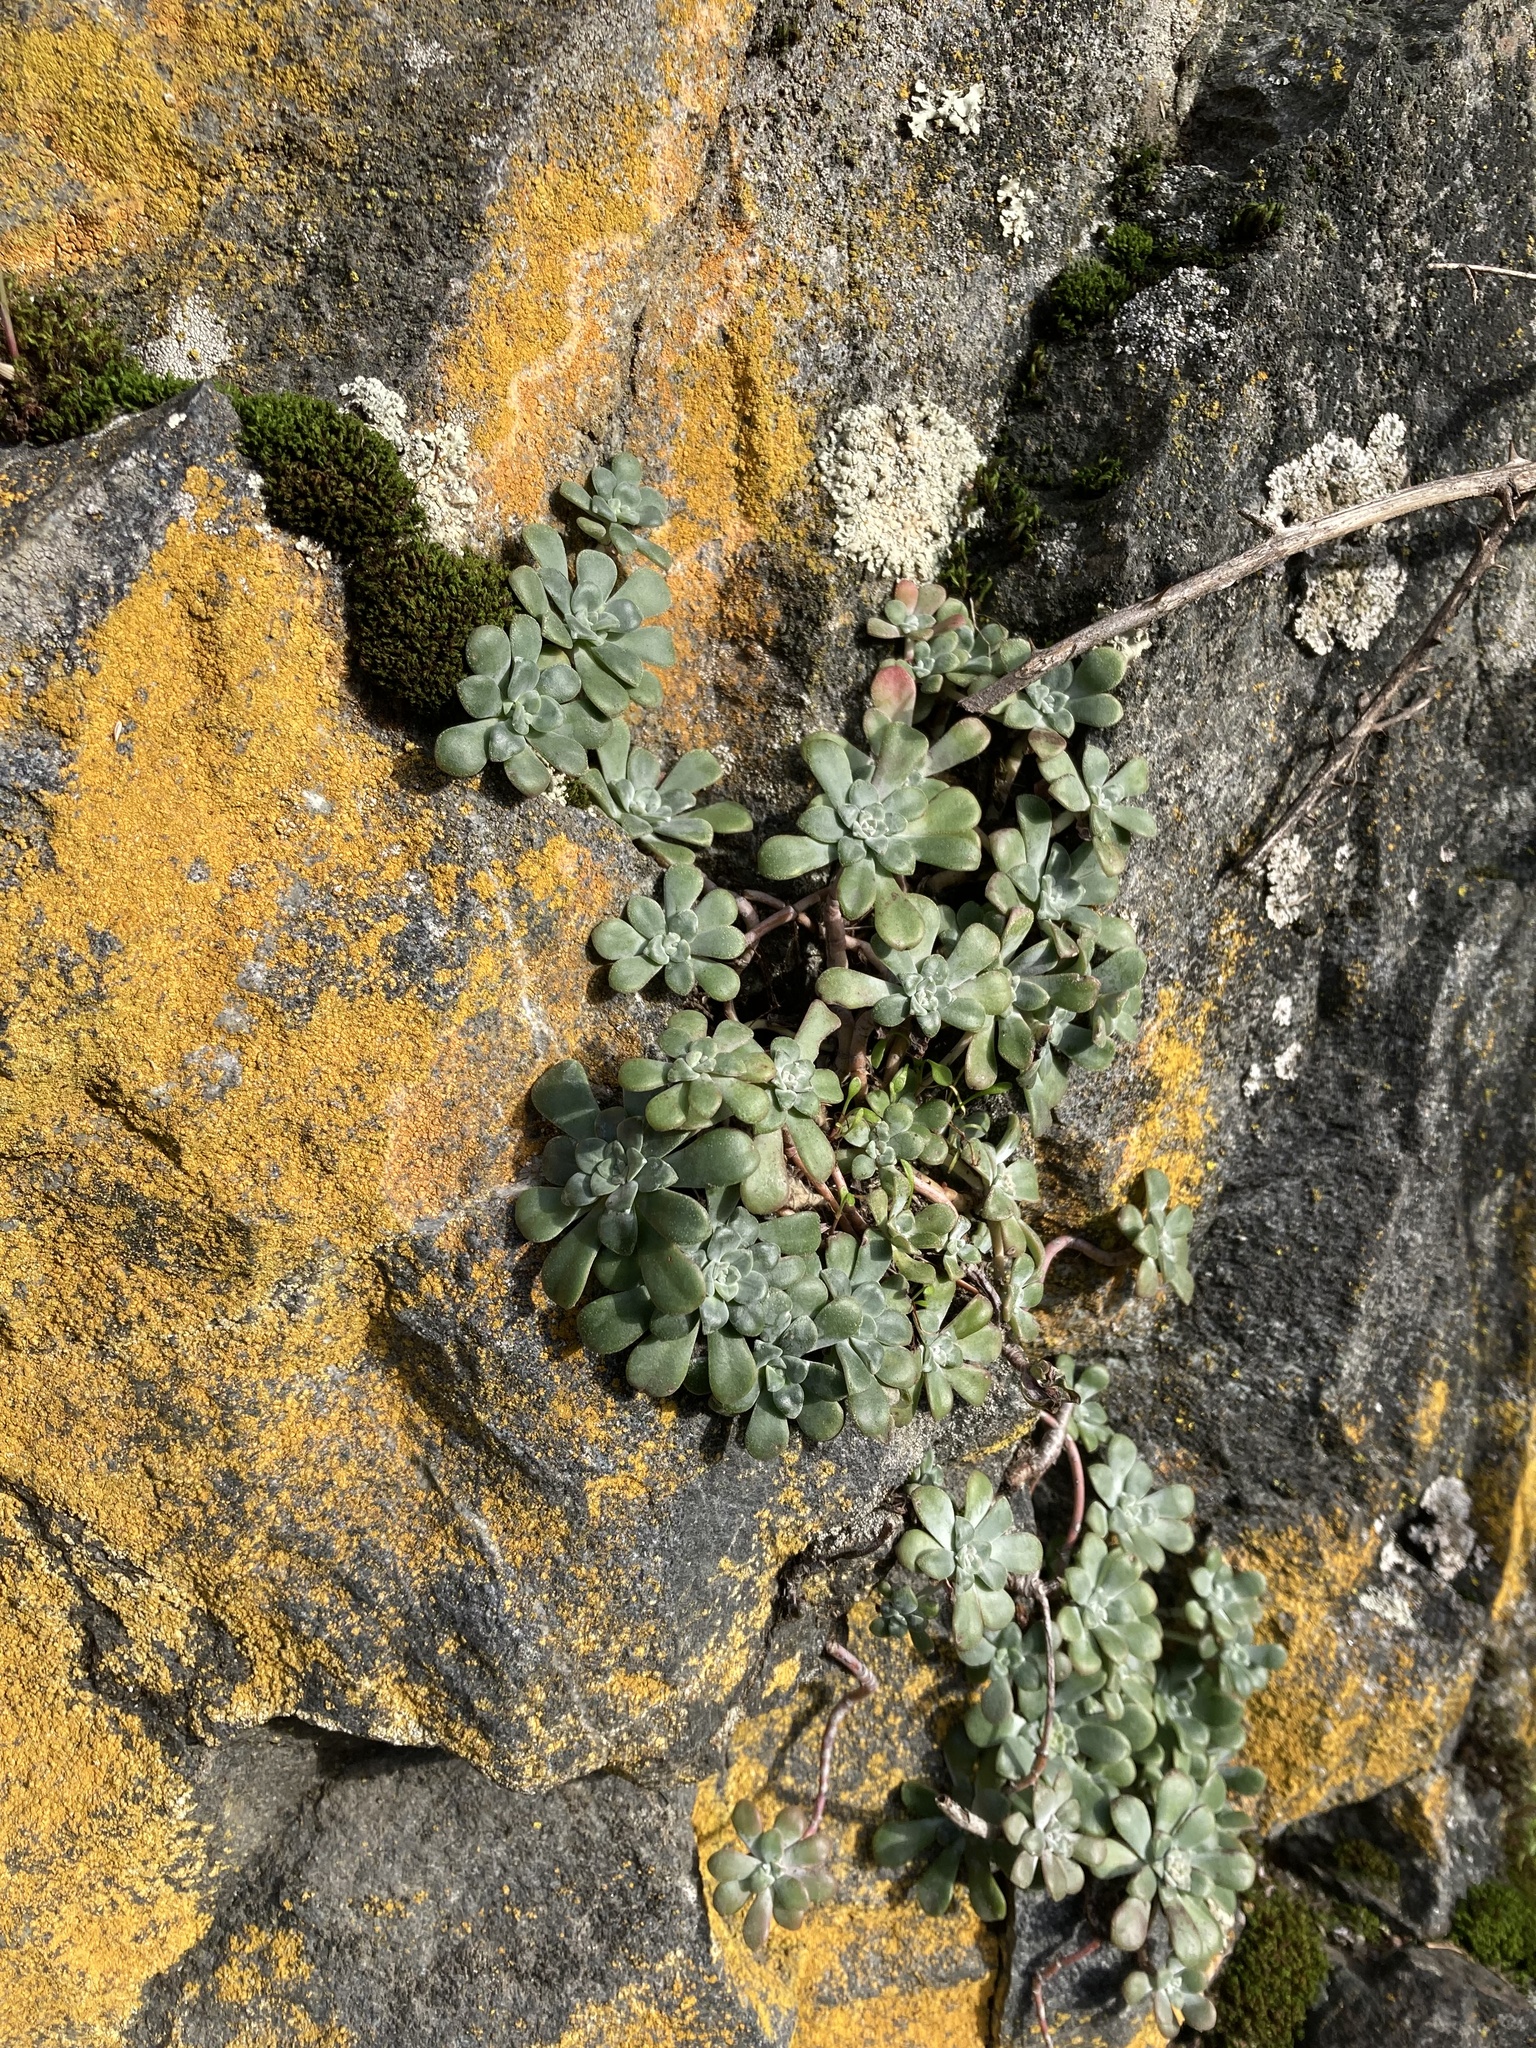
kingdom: Plantae
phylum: Tracheophyta
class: Magnoliopsida
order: Saxifragales
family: Crassulaceae
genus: Sedum
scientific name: Sedum spathulifolium
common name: Colorado stonecrop
